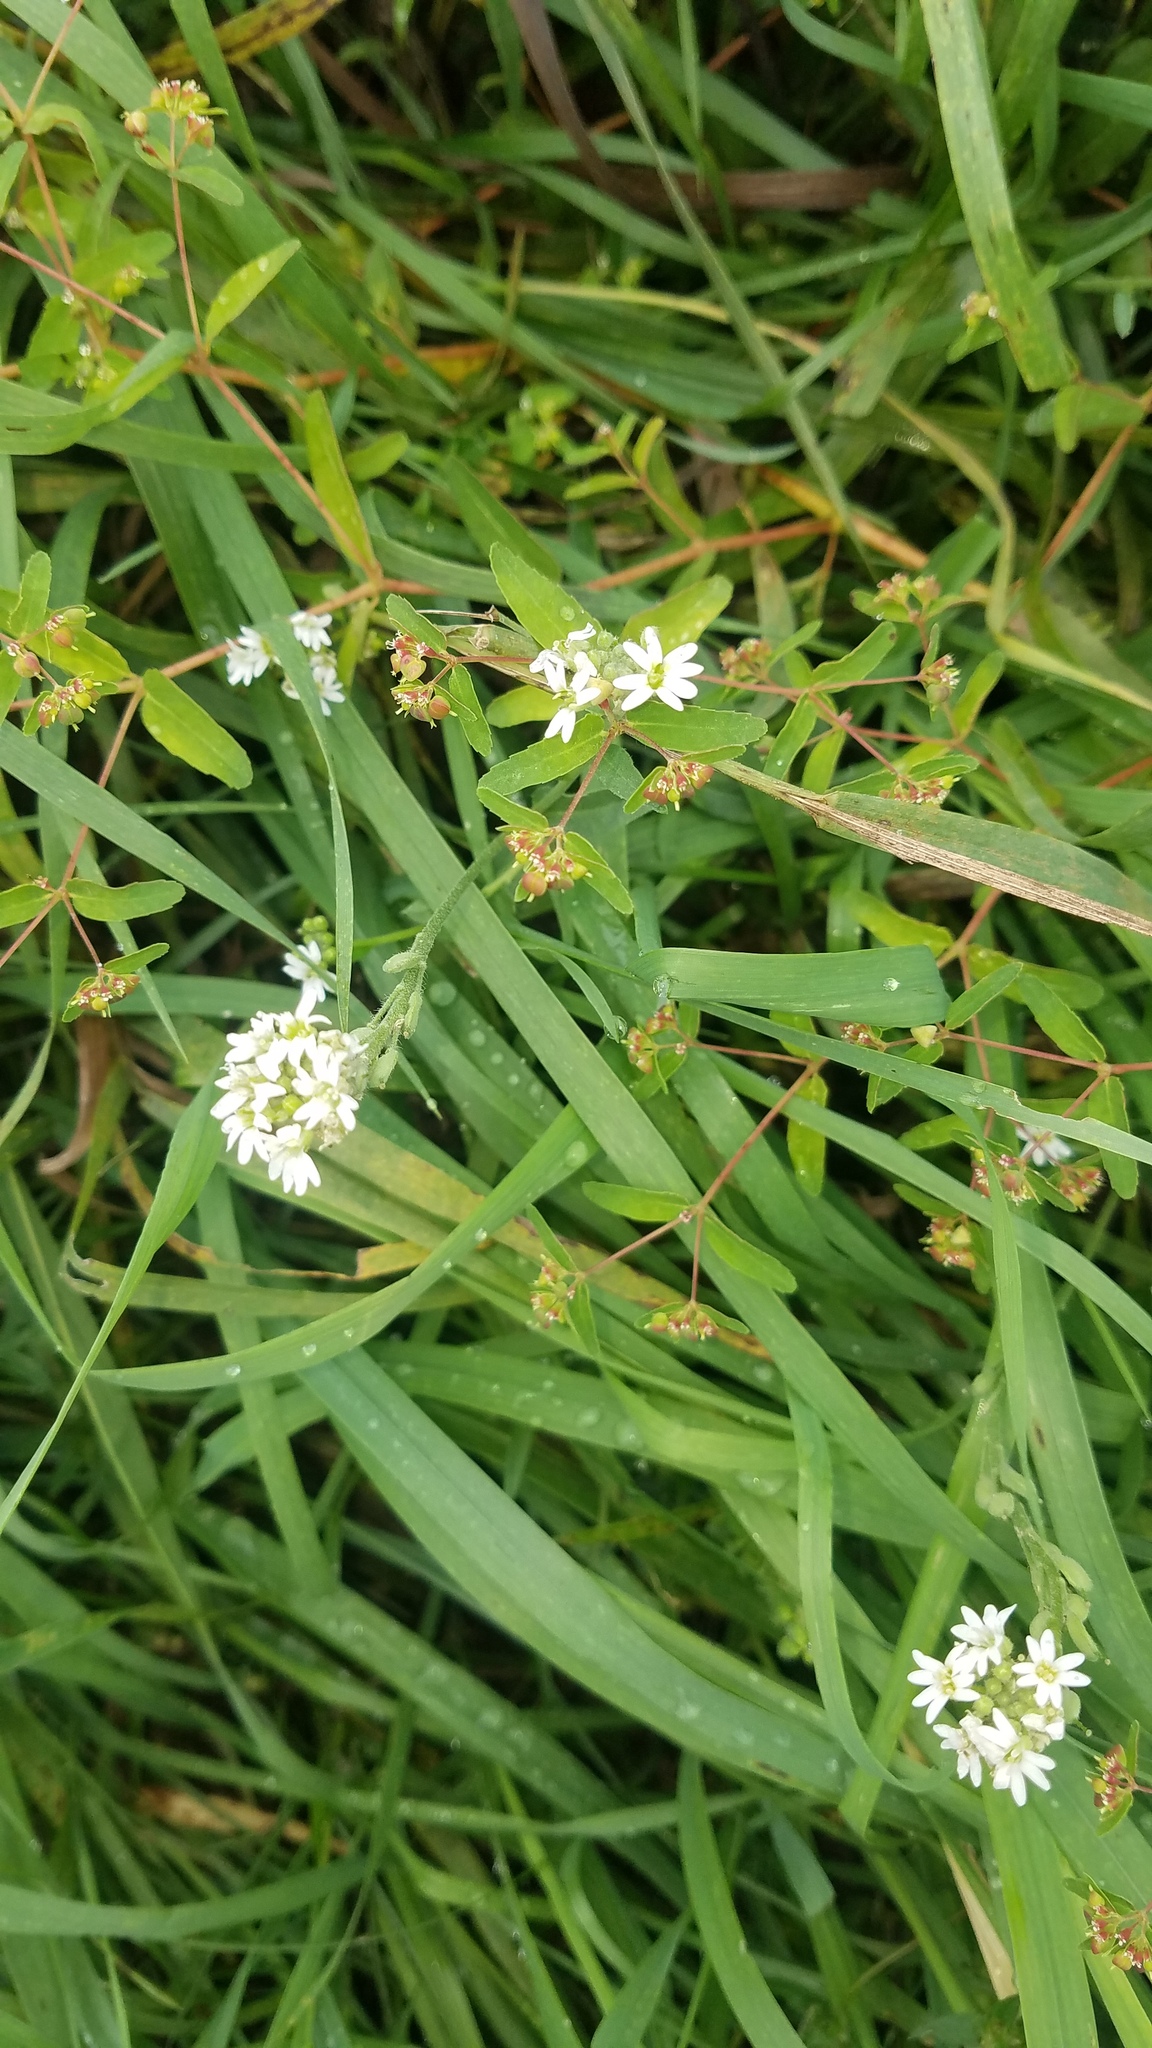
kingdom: Plantae
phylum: Tracheophyta
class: Magnoliopsida
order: Brassicales
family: Brassicaceae
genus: Berteroa
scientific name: Berteroa incana
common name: Hoary alison
